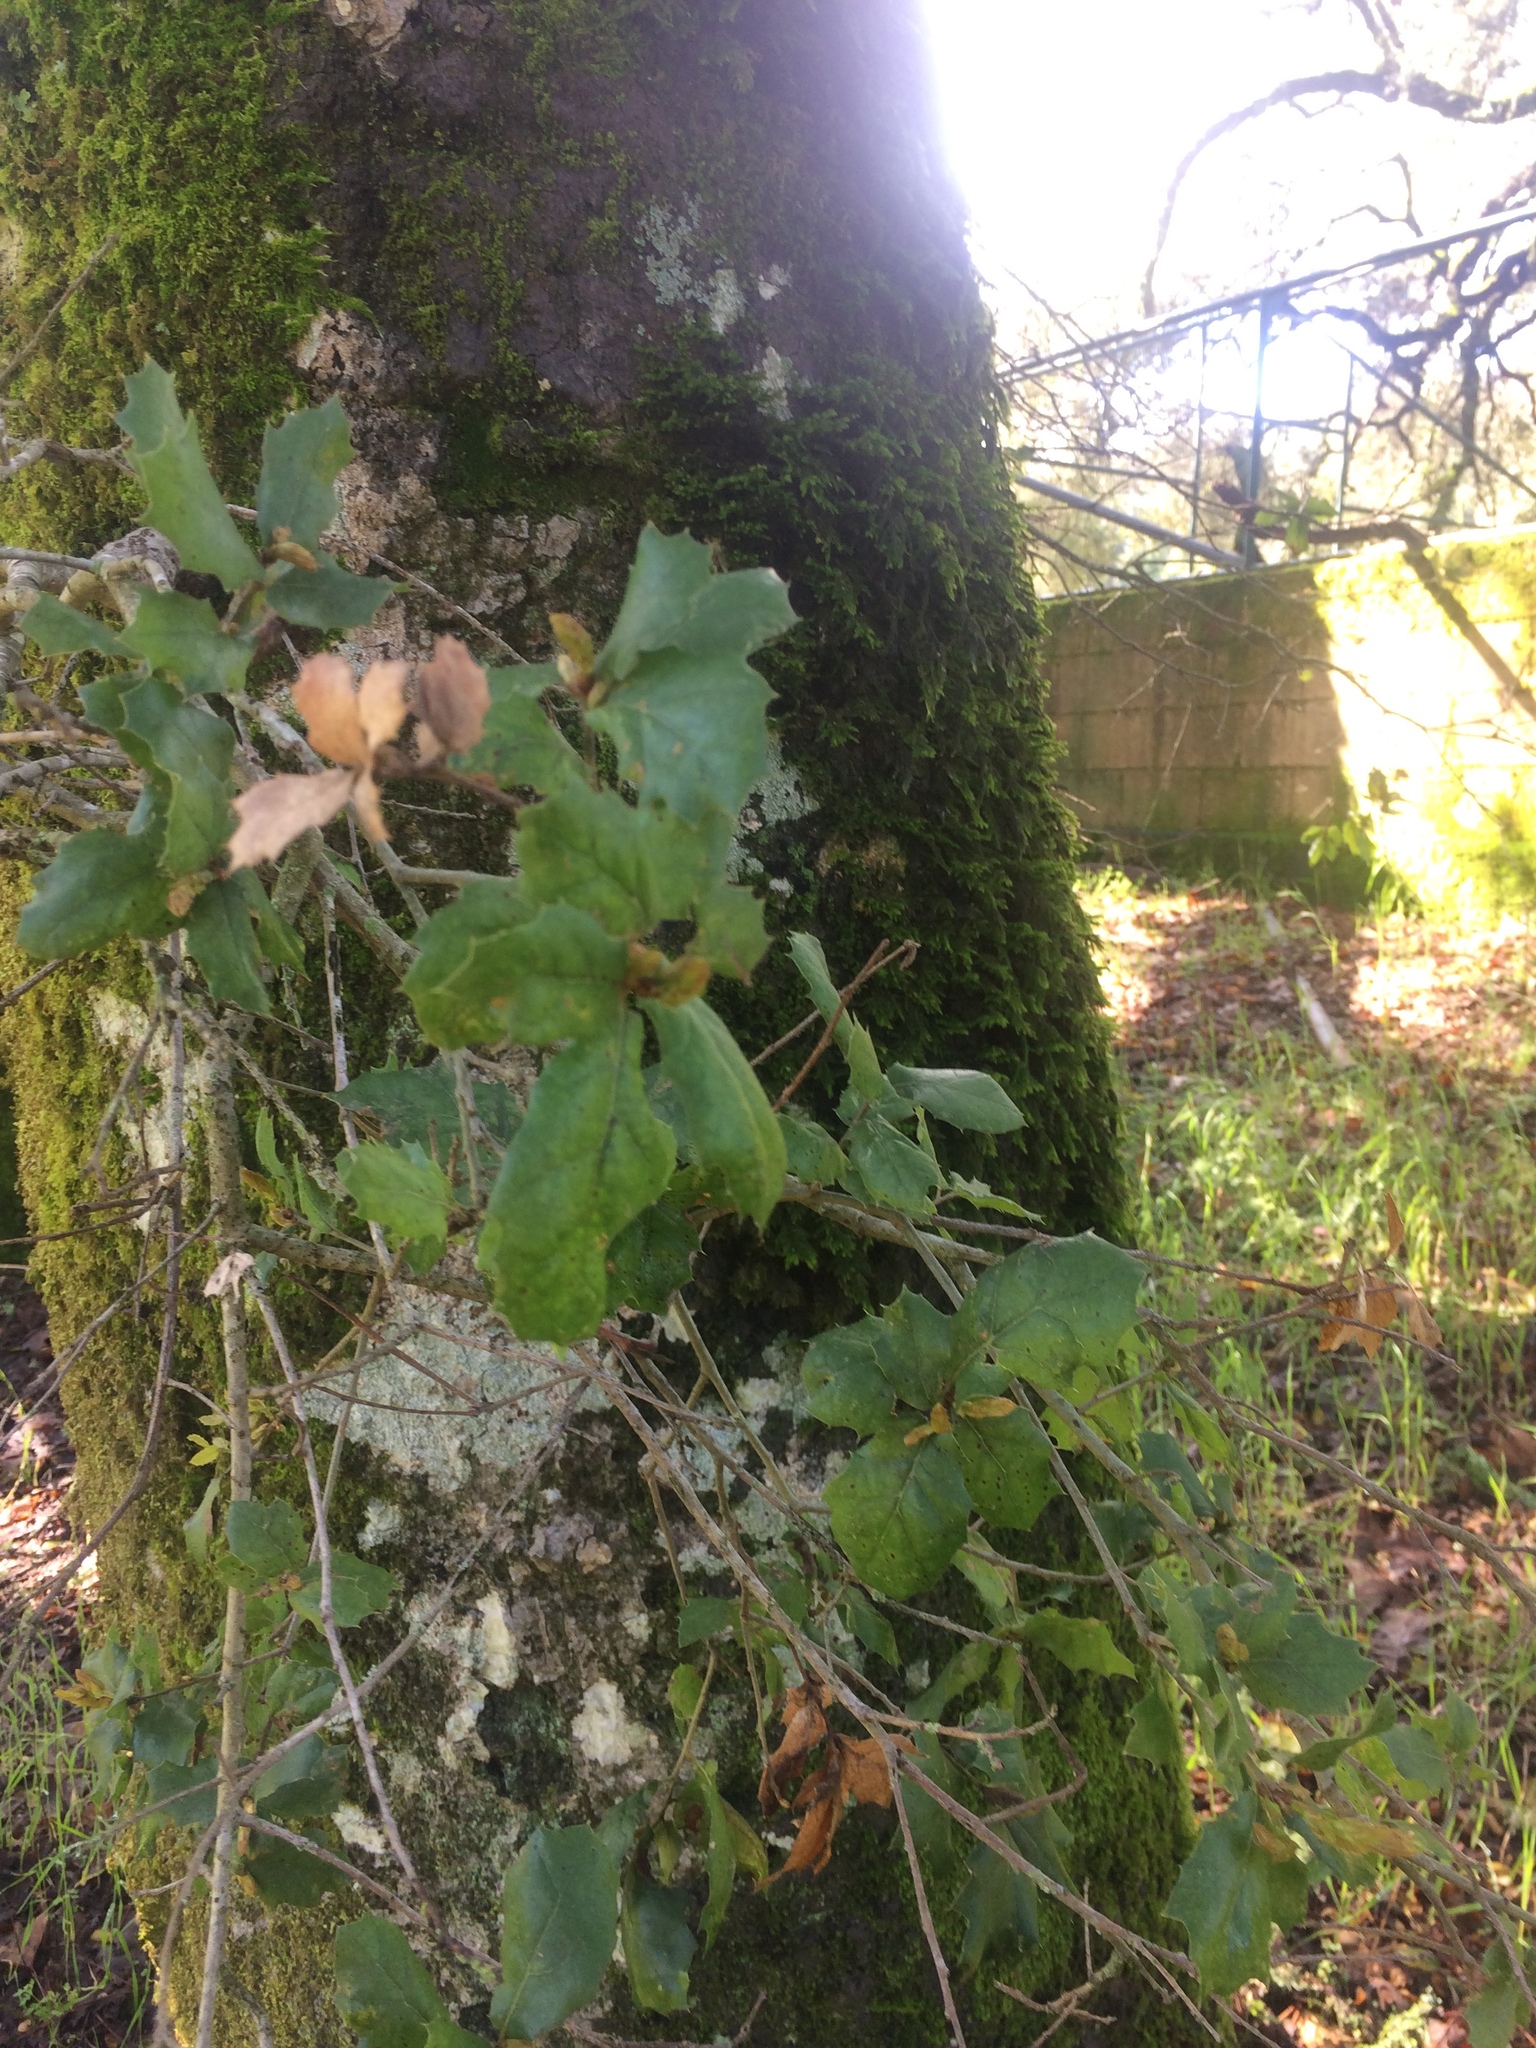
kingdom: Plantae
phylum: Tracheophyta
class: Magnoliopsida
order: Fagales
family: Fagaceae
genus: Quercus
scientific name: Quercus agrifolia
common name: California live oak
